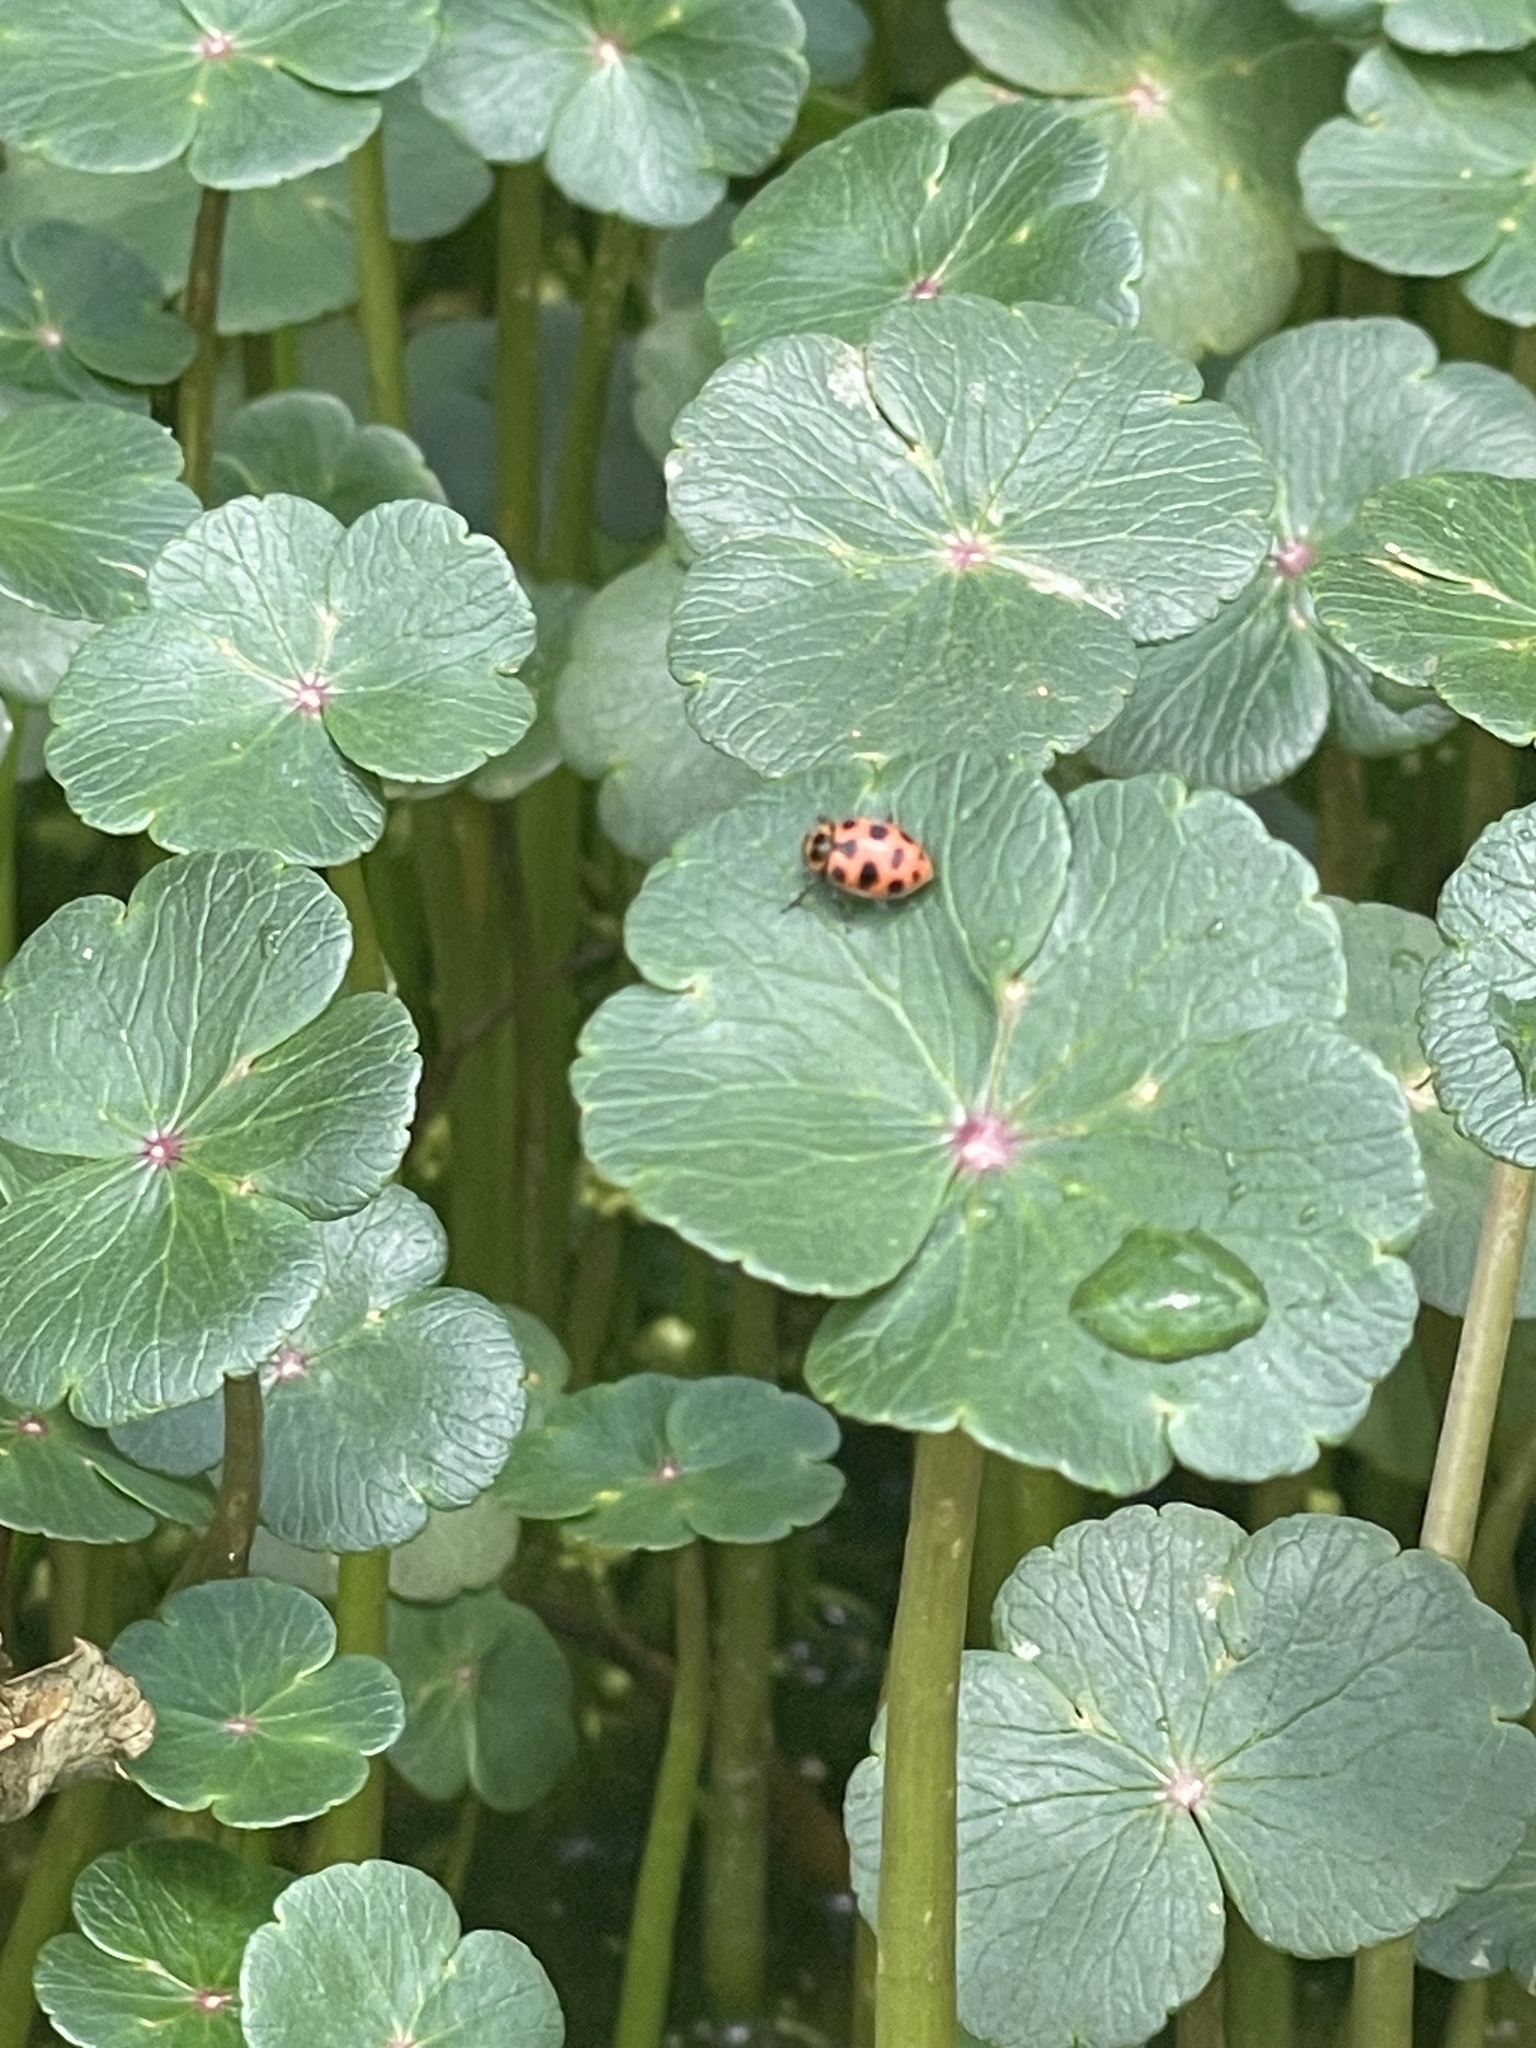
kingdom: Animalia
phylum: Arthropoda
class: Insecta
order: Coleoptera
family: Coccinellidae
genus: Coleomegilla
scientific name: Coleomegilla maculata
